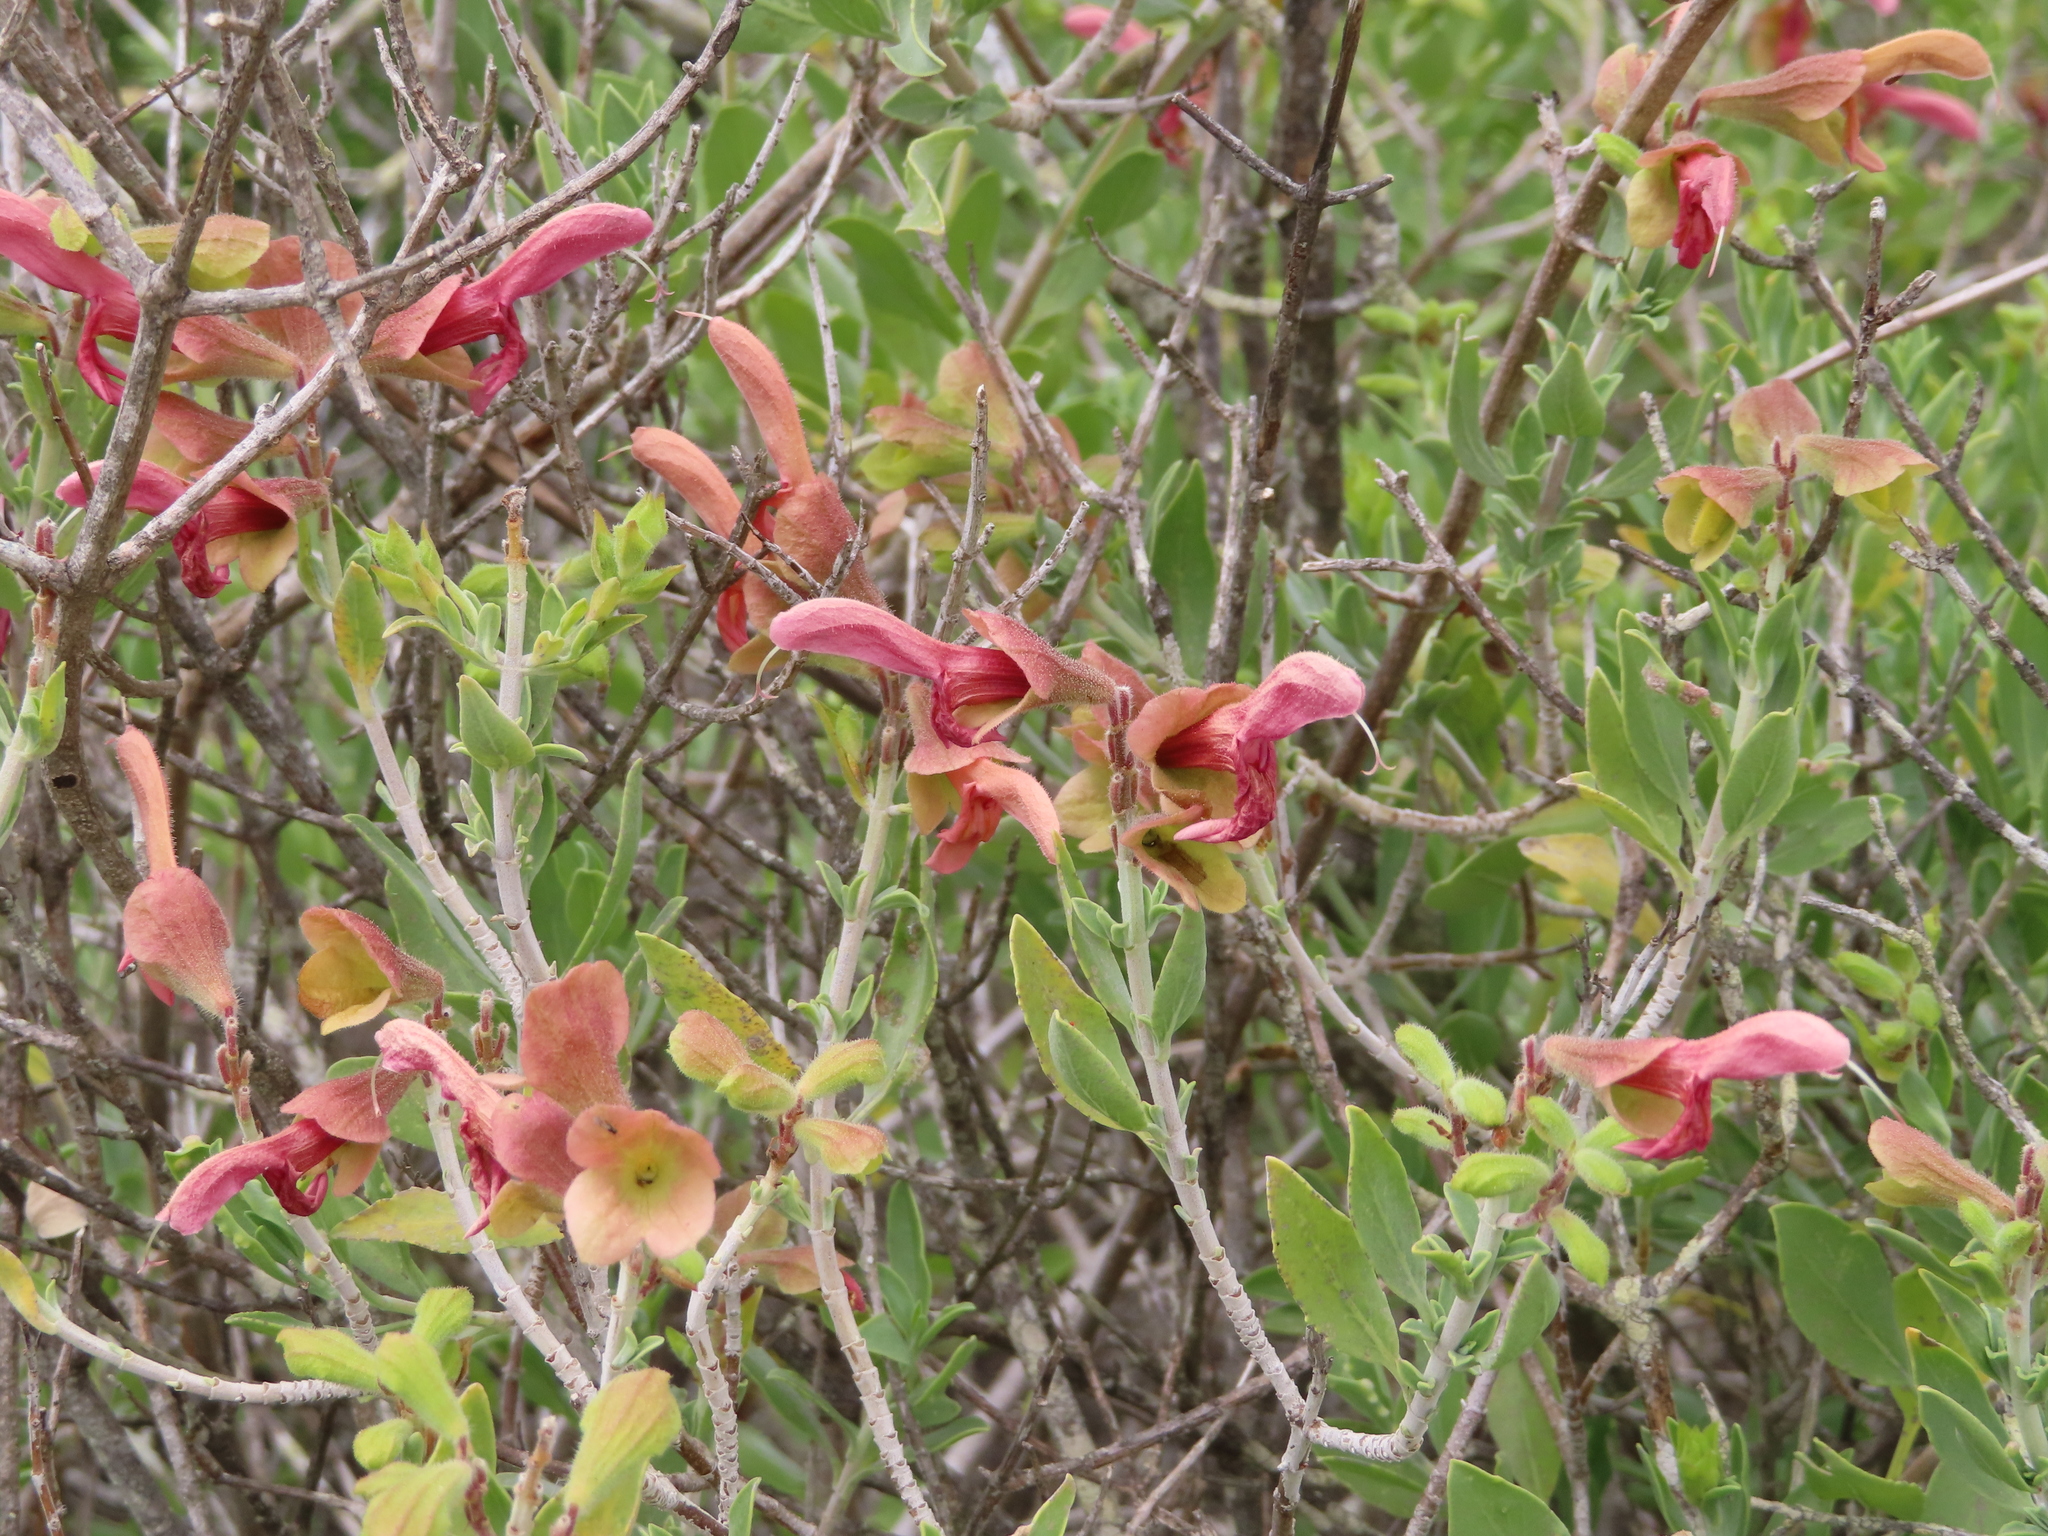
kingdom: Plantae
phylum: Tracheophyta
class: Magnoliopsida
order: Lamiales
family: Lamiaceae
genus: Salvia
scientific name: Salvia lanceolata
